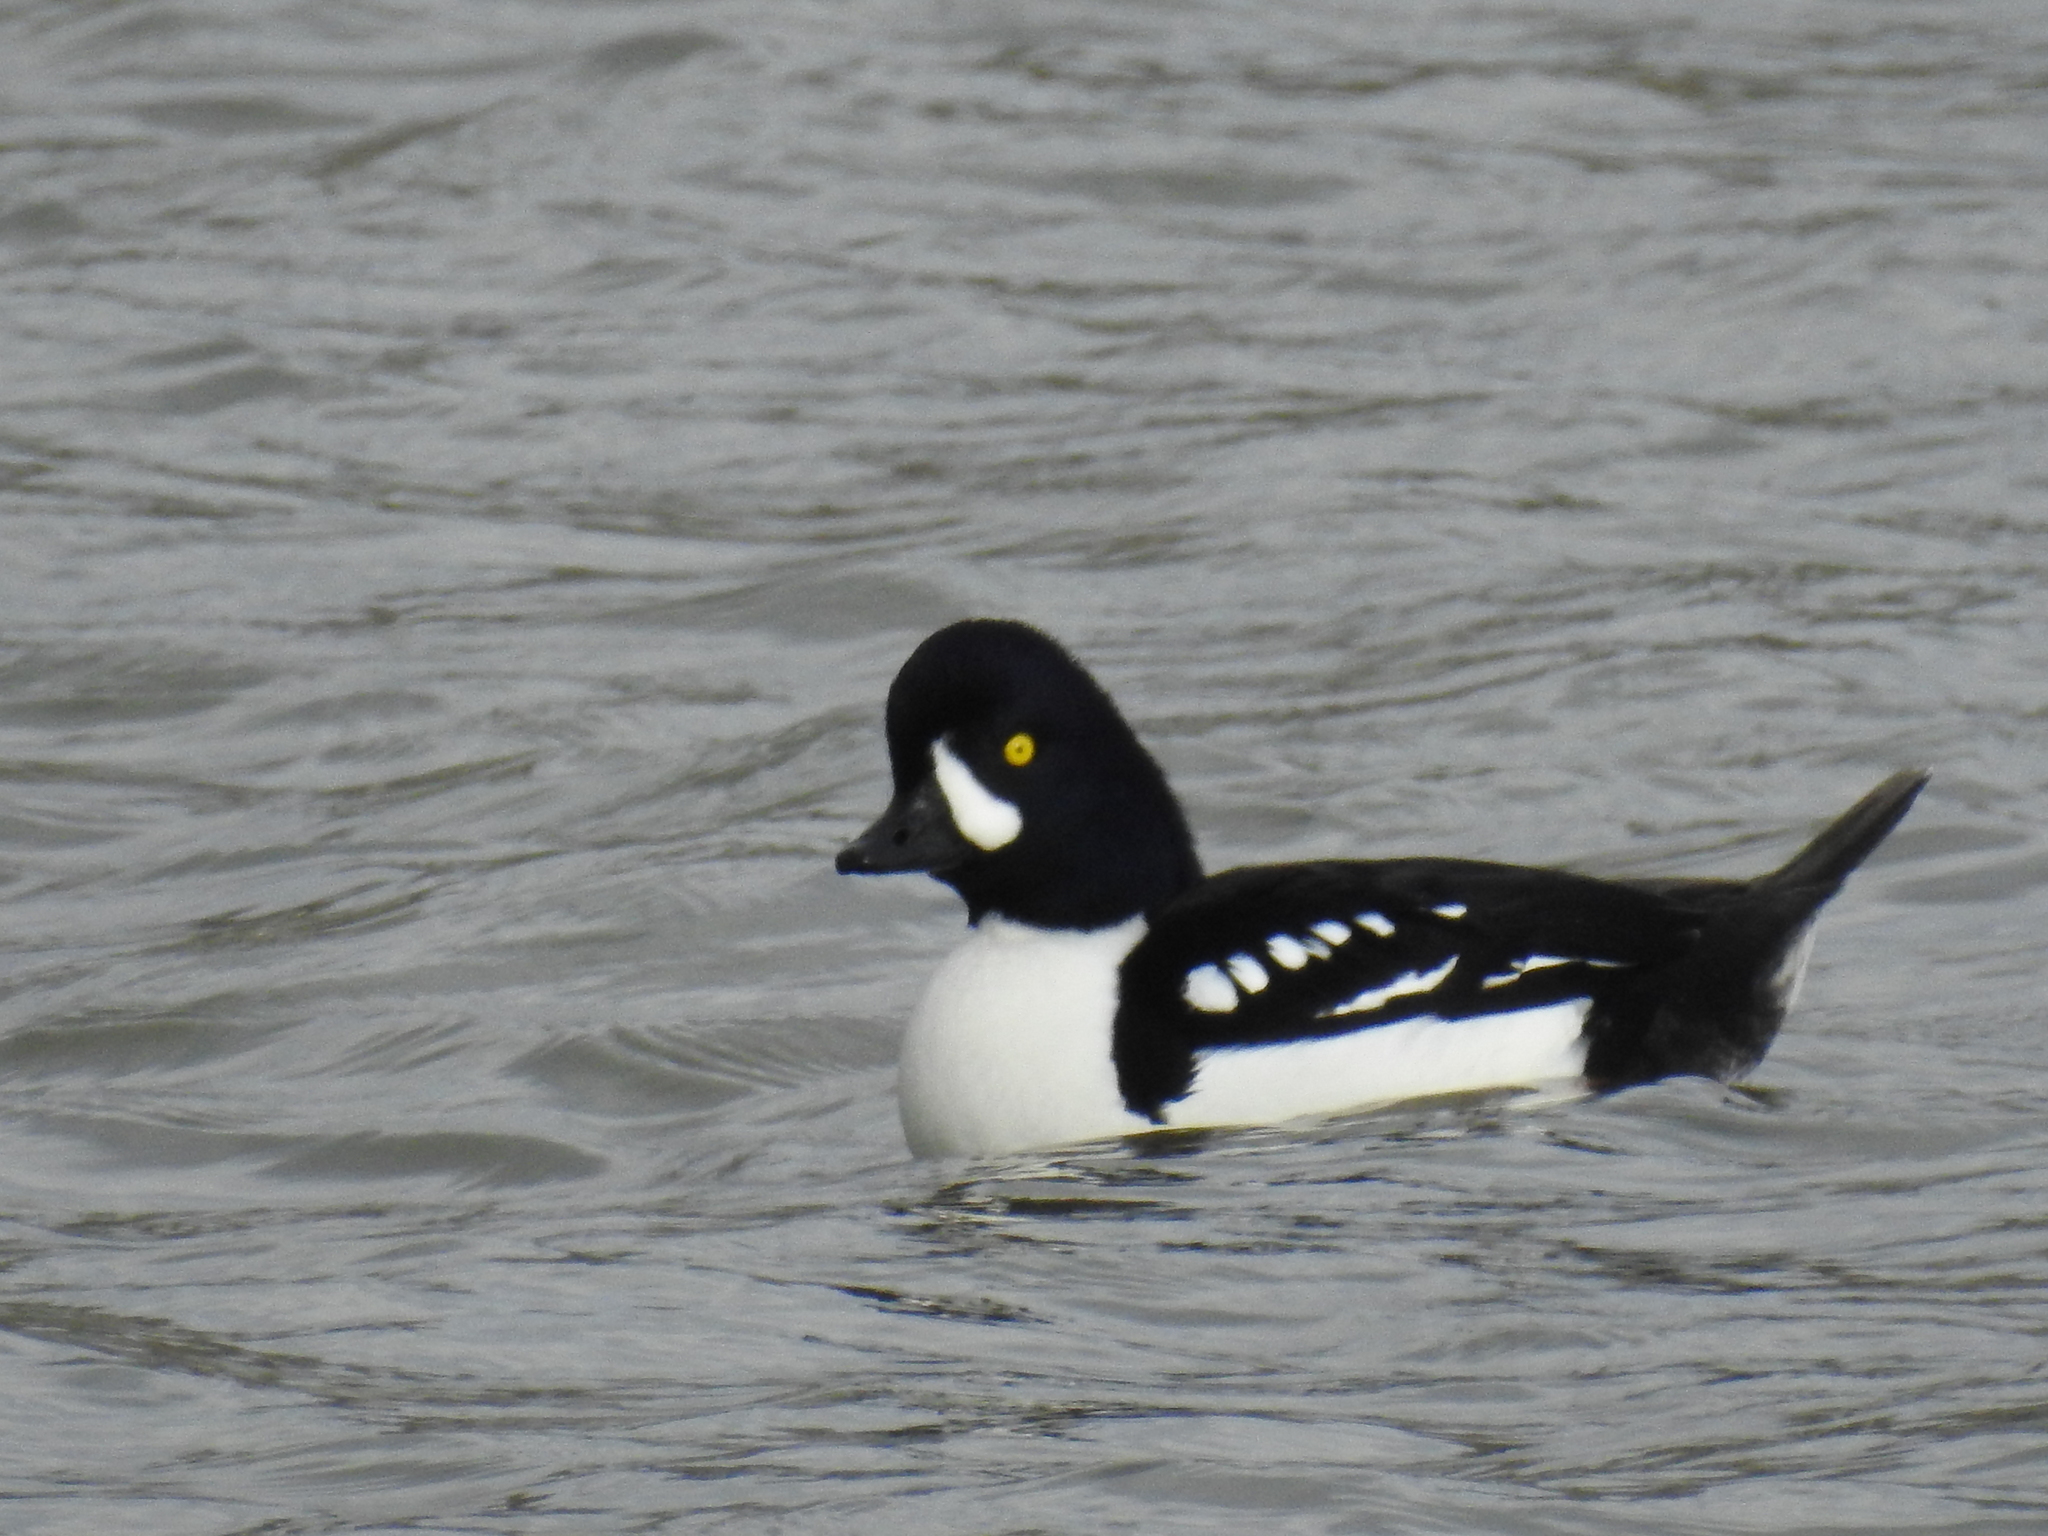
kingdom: Animalia
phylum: Chordata
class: Aves
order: Anseriformes
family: Anatidae
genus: Bucephala
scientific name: Bucephala islandica
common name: Barrow's goldeneye
